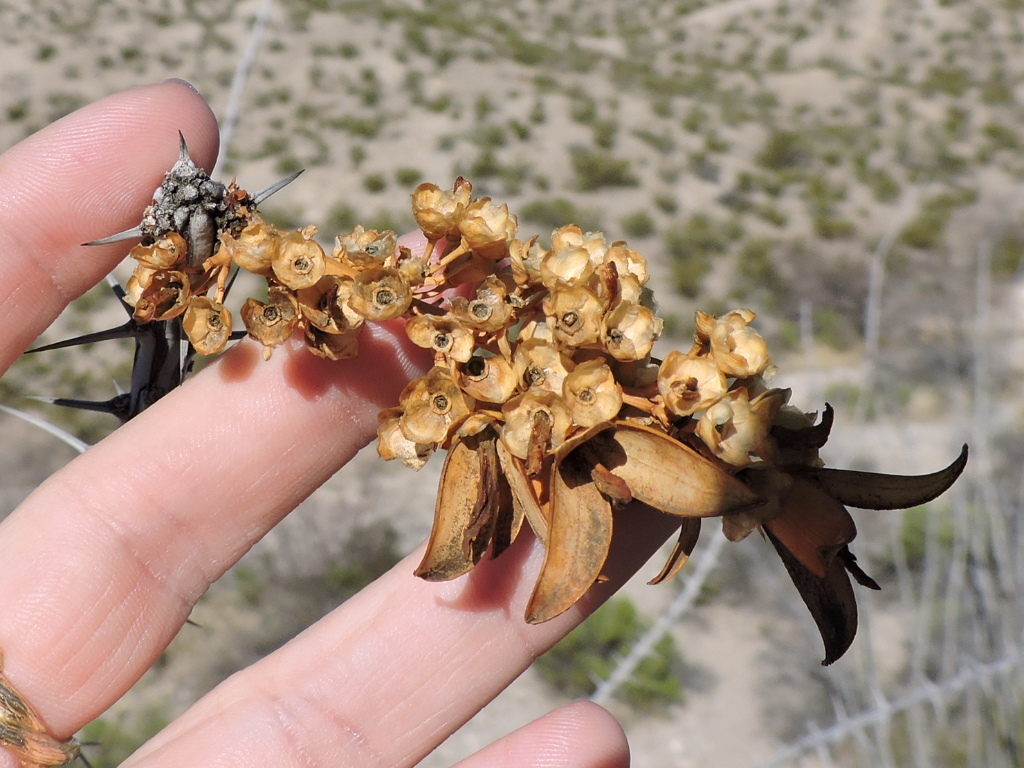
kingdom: Plantae
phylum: Tracheophyta
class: Magnoliopsida
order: Ericales
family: Fouquieriaceae
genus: Fouquieria
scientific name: Fouquieria splendens
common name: Vine-cactus
